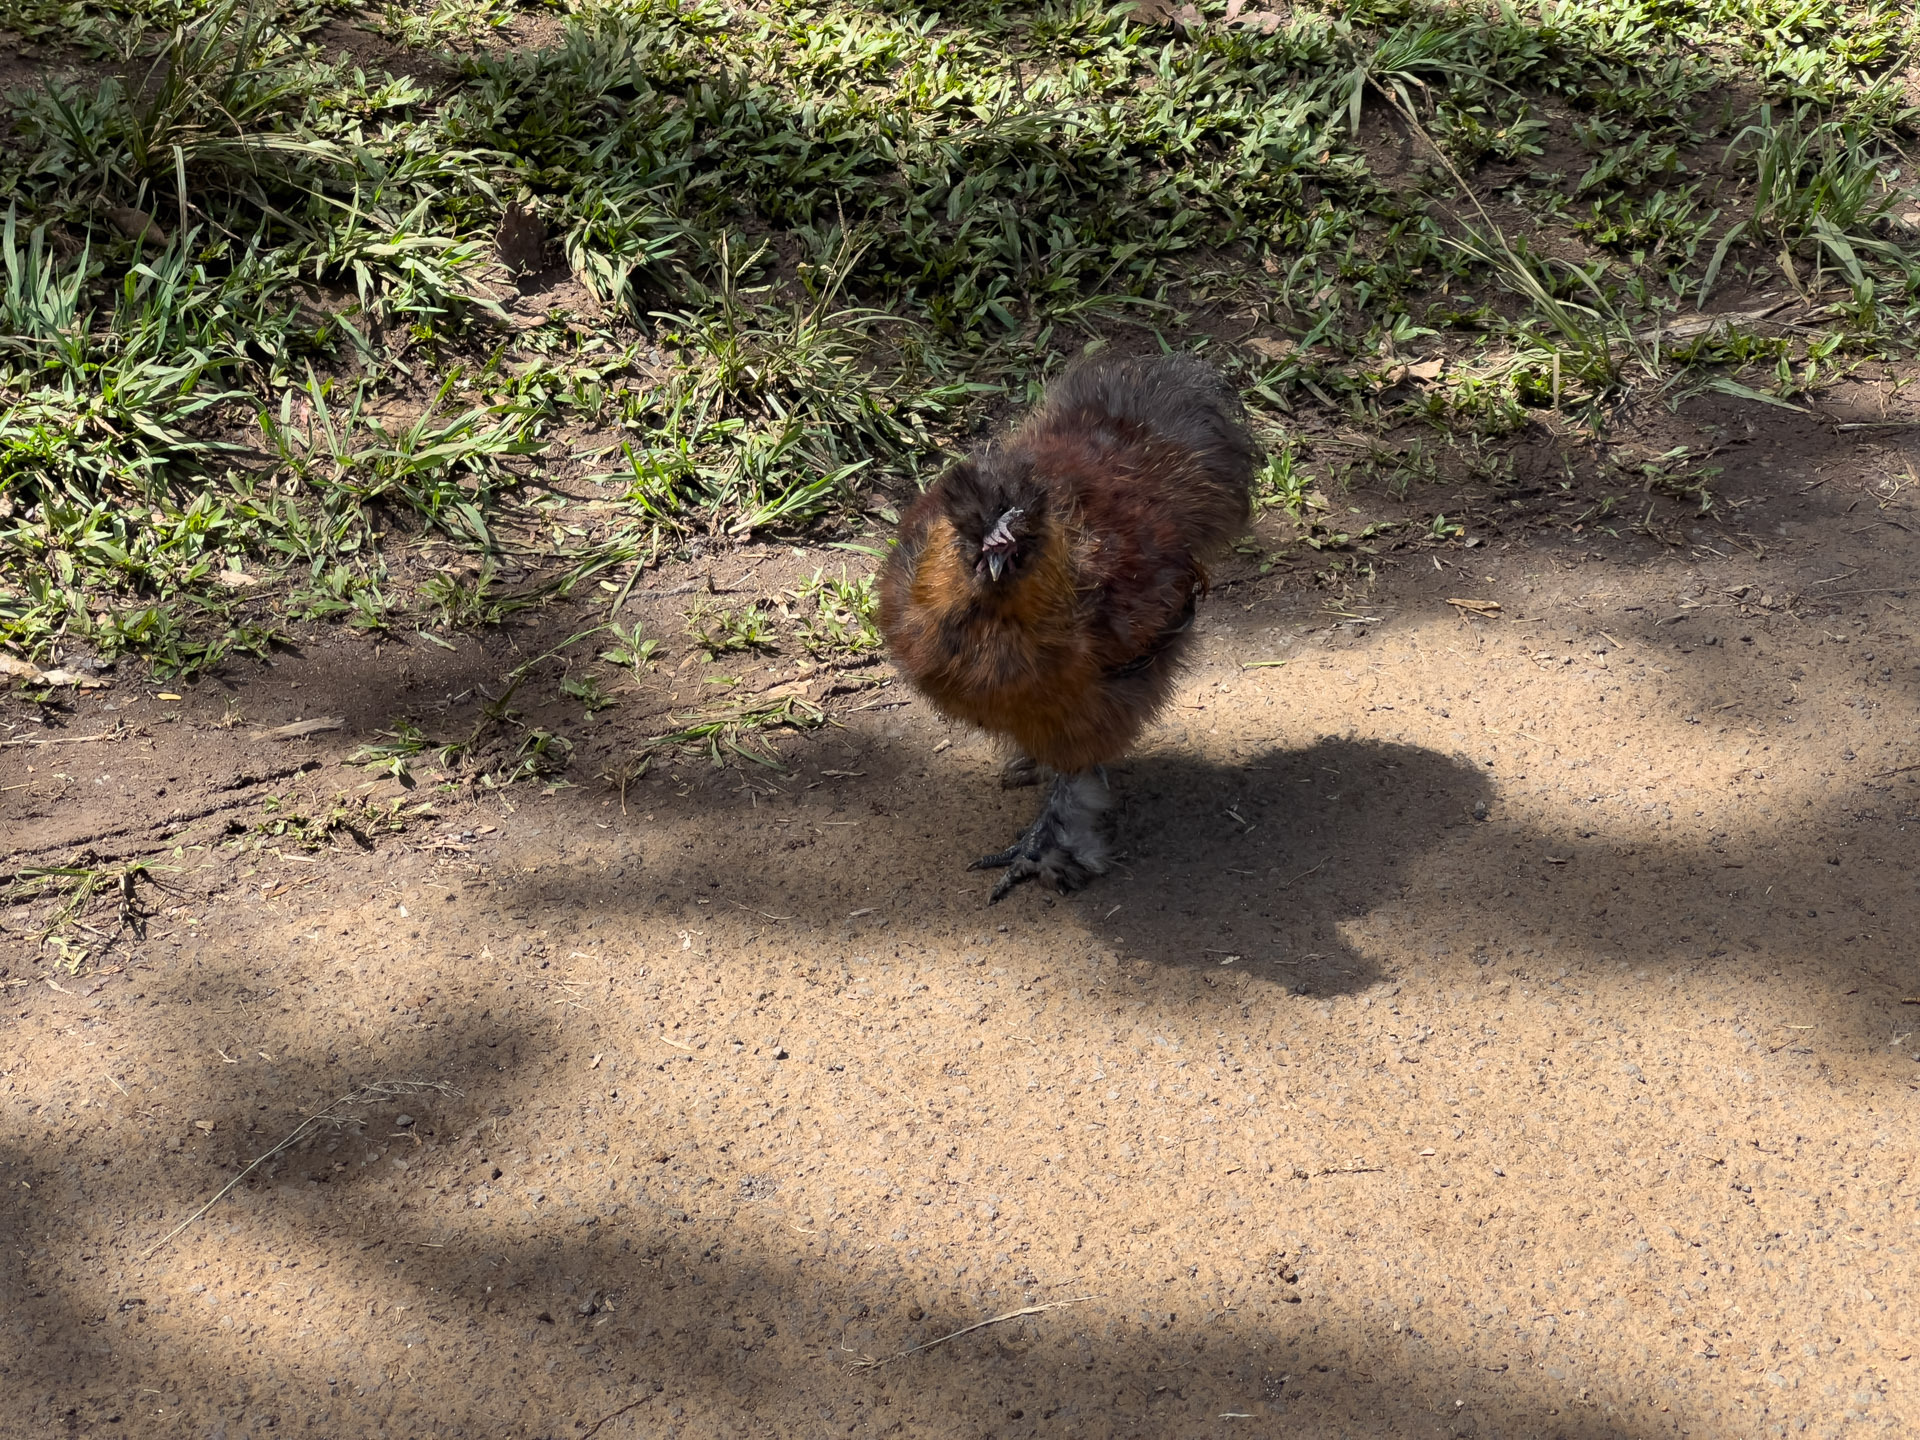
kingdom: Animalia
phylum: Chordata
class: Aves
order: Galliformes
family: Phasianidae
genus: Gallus
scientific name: Gallus gallus
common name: Red junglefowl
